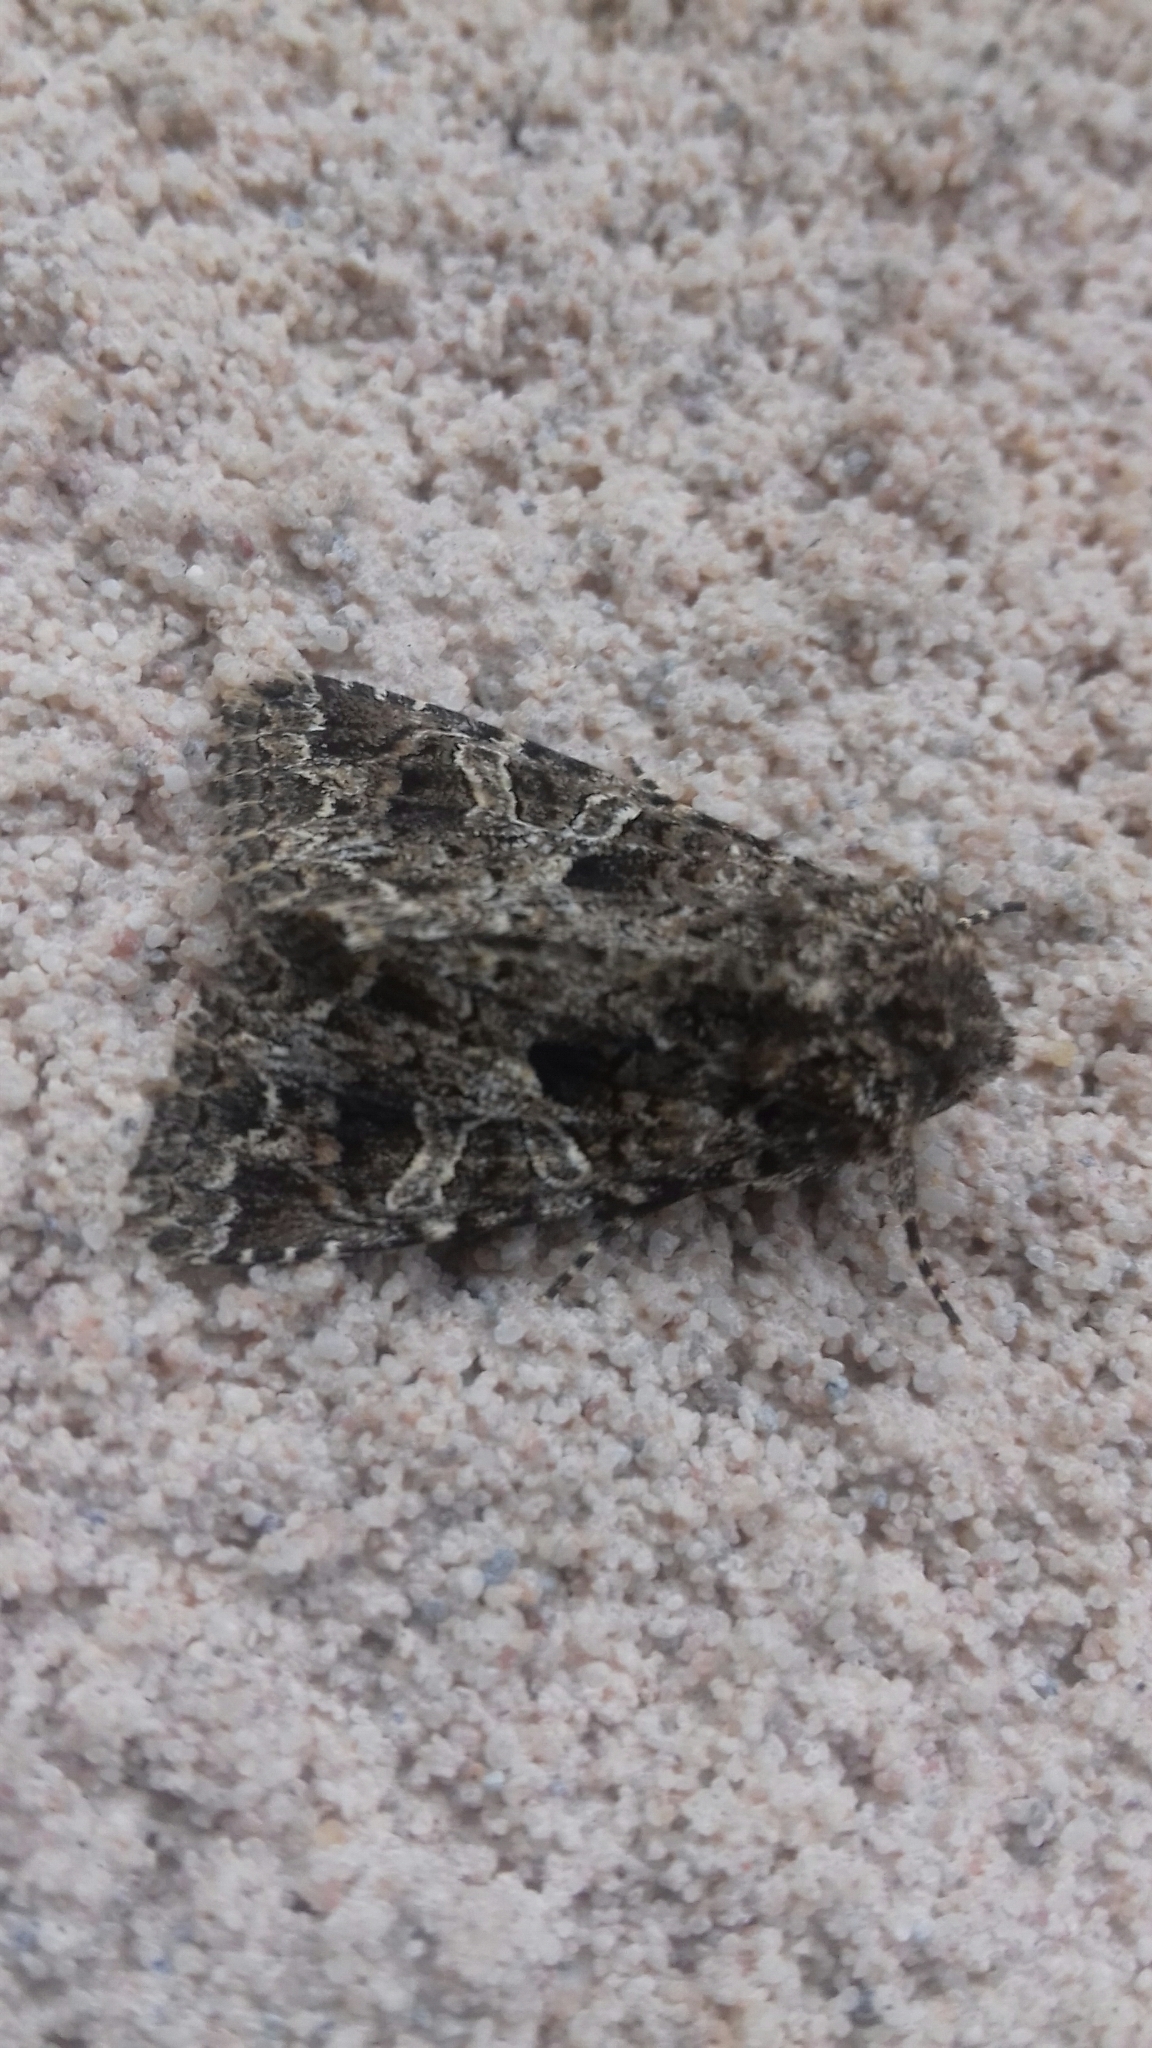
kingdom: Animalia
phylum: Arthropoda
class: Insecta
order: Lepidoptera
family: Noctuidae
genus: Hadena
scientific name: Hadena bicruris
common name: Lychnis
